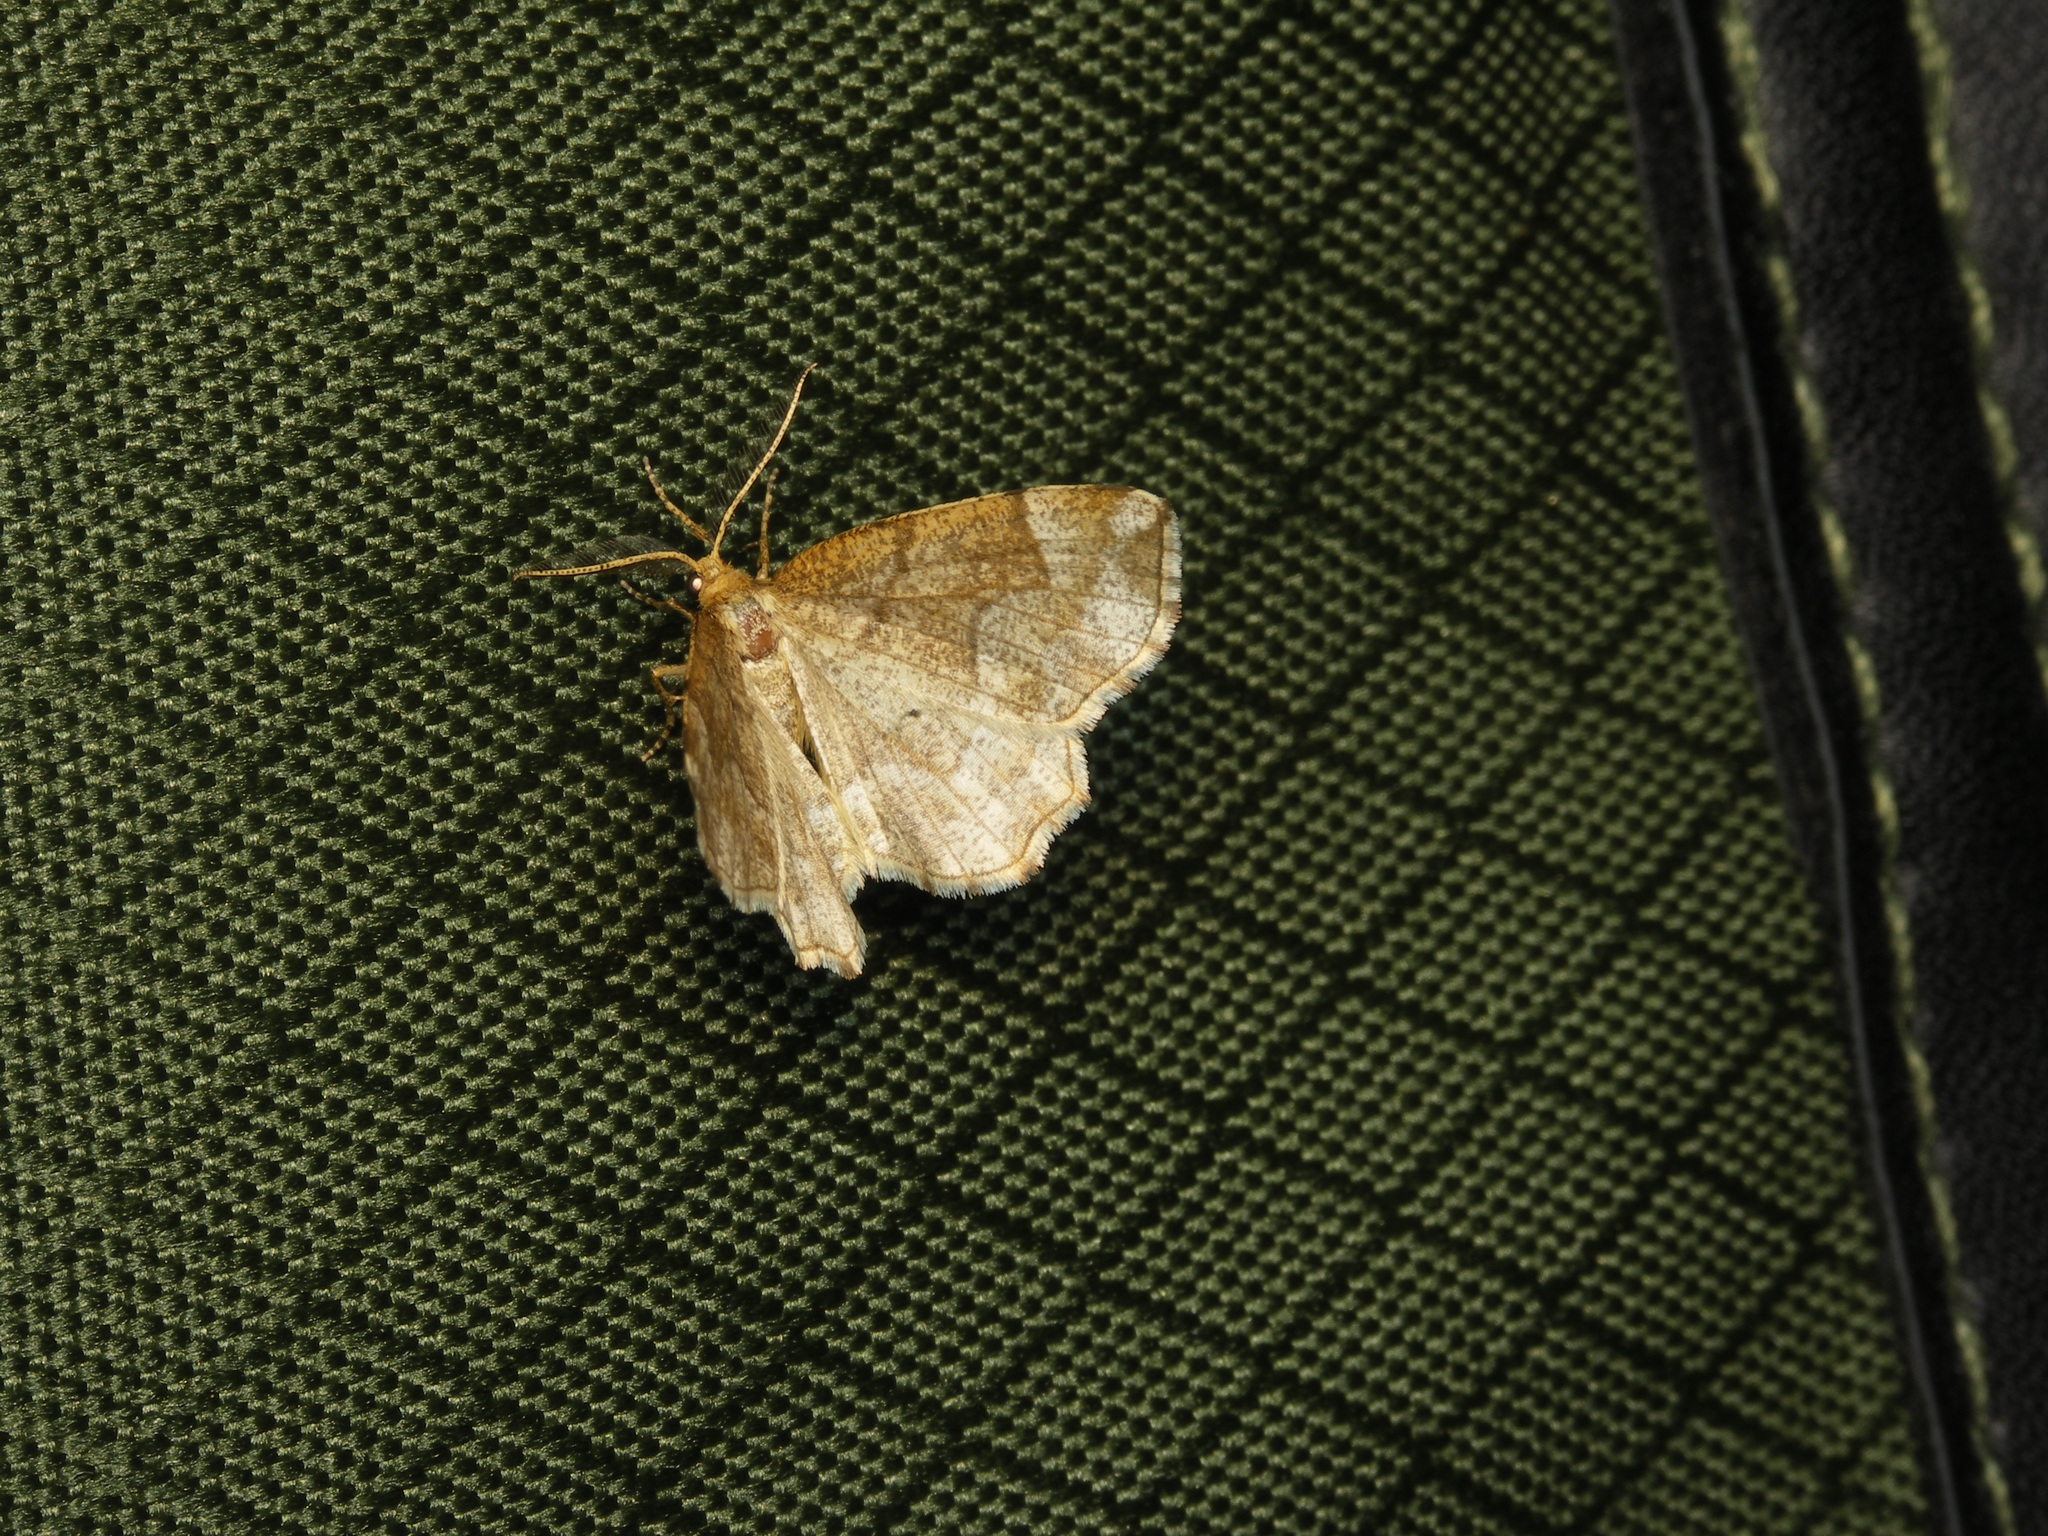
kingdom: Animalia
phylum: Arthropoda
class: Insecta
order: Lepidoptera
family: Geometridae
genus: Cepphis
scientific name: Cepphis advenaria
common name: Little thorn
